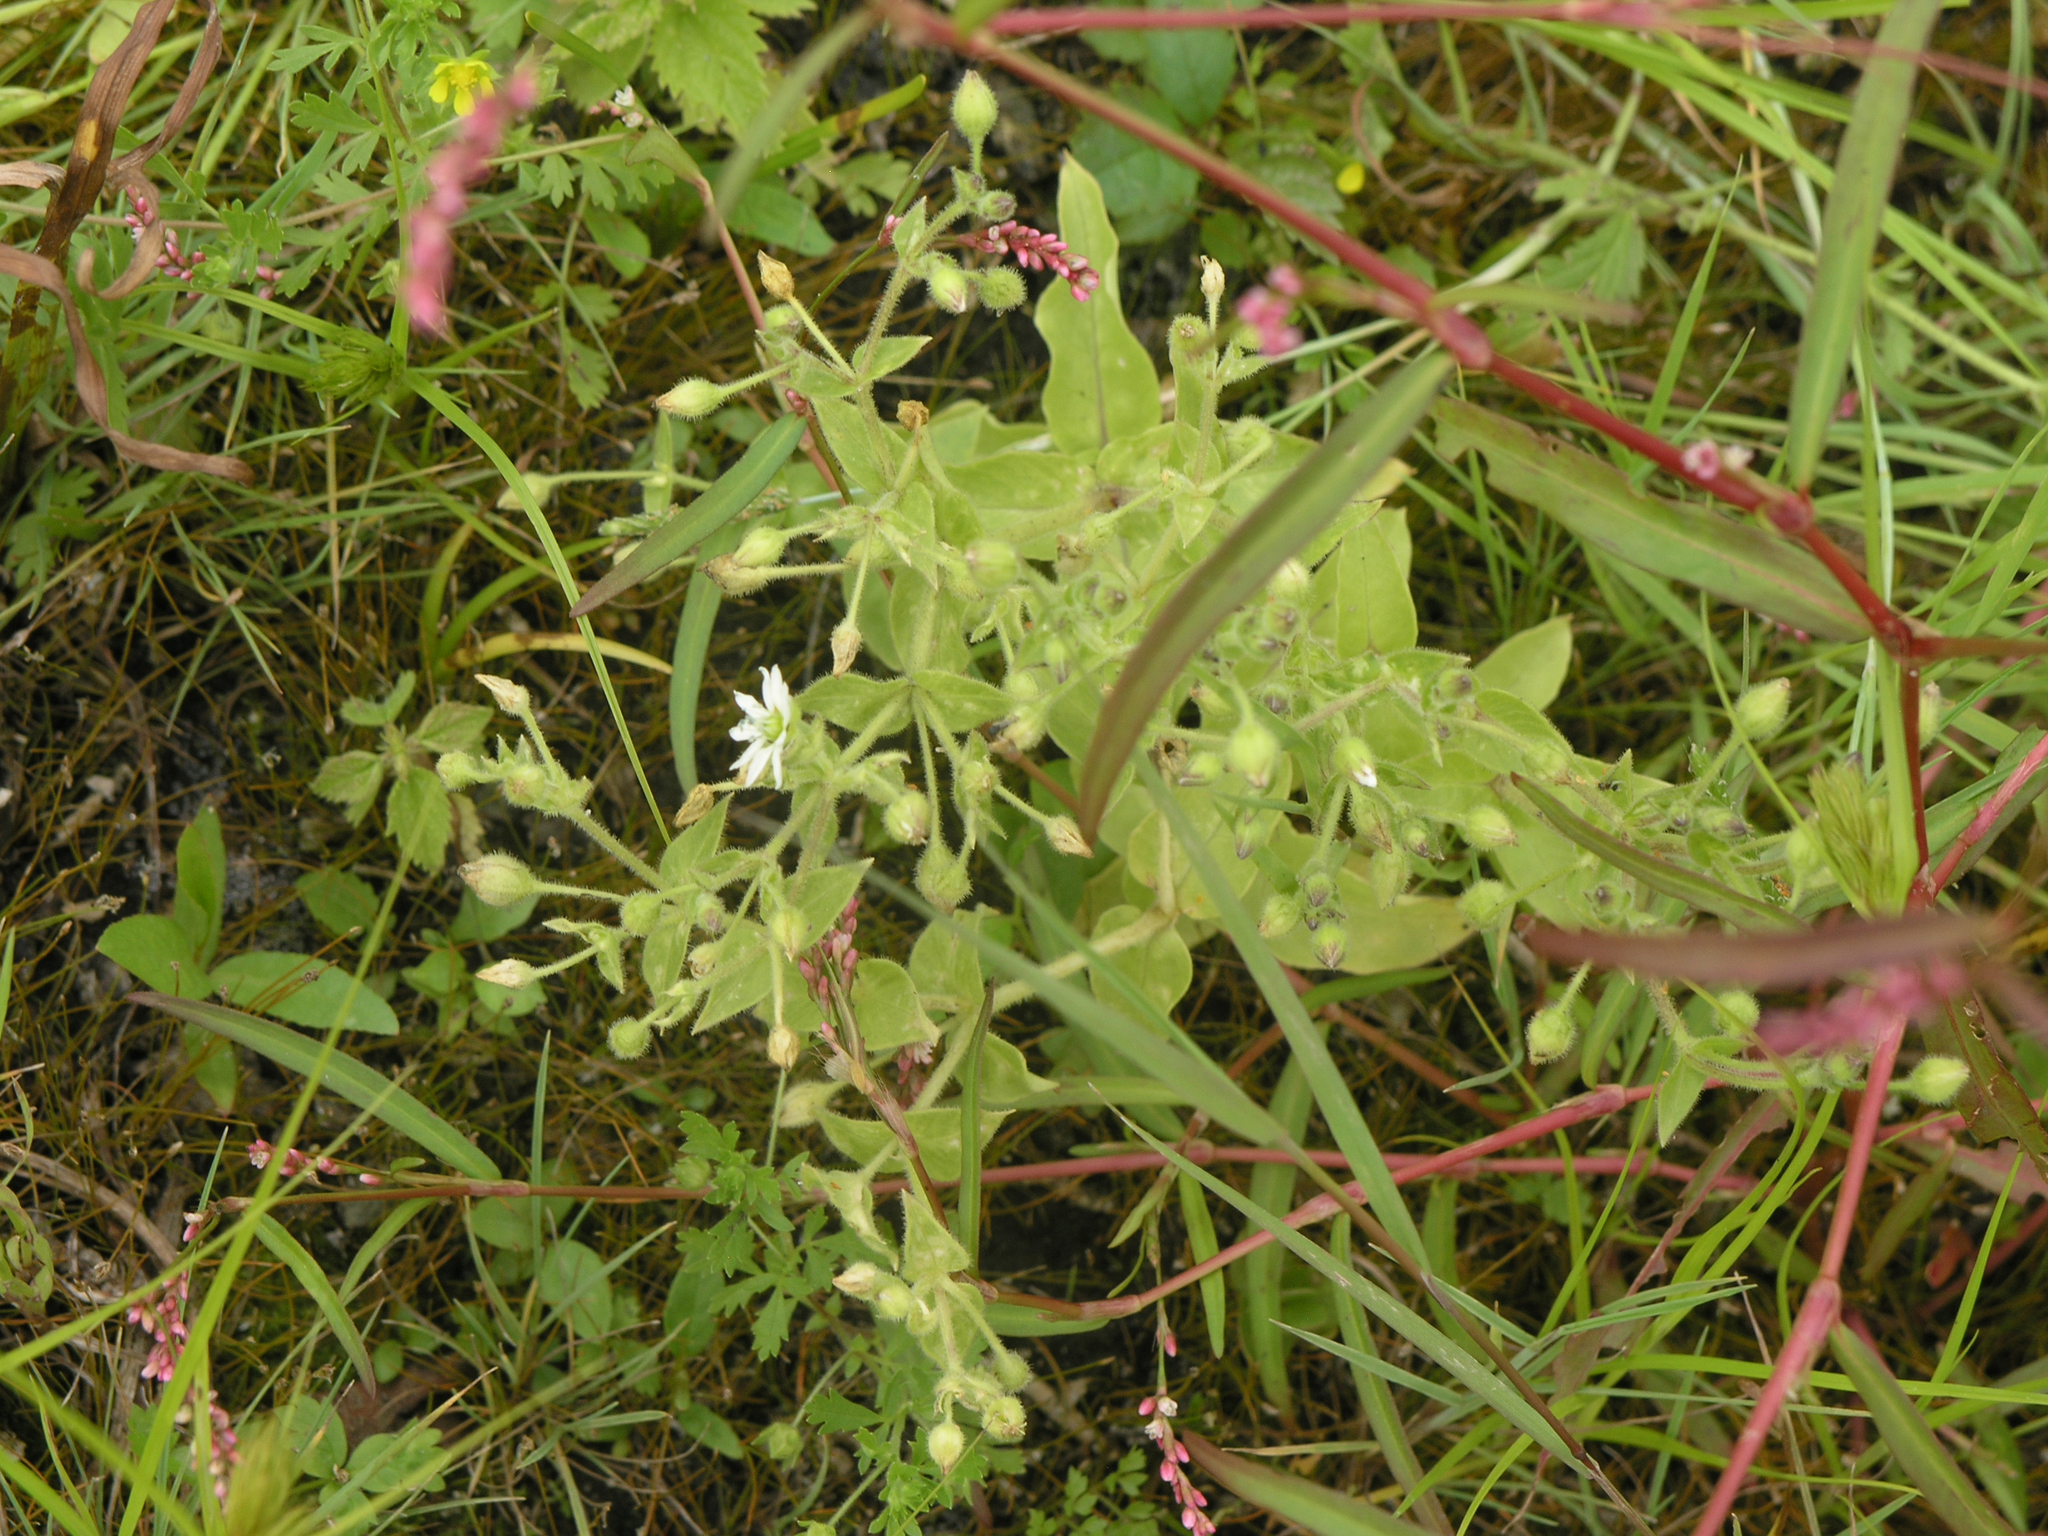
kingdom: Plantae
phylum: Tracheophyta
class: Magnoliopsida
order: Caryophyllales
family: Caryophyllaceae
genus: Stellaria
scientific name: Stellaria aquatica
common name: Water chickweed
